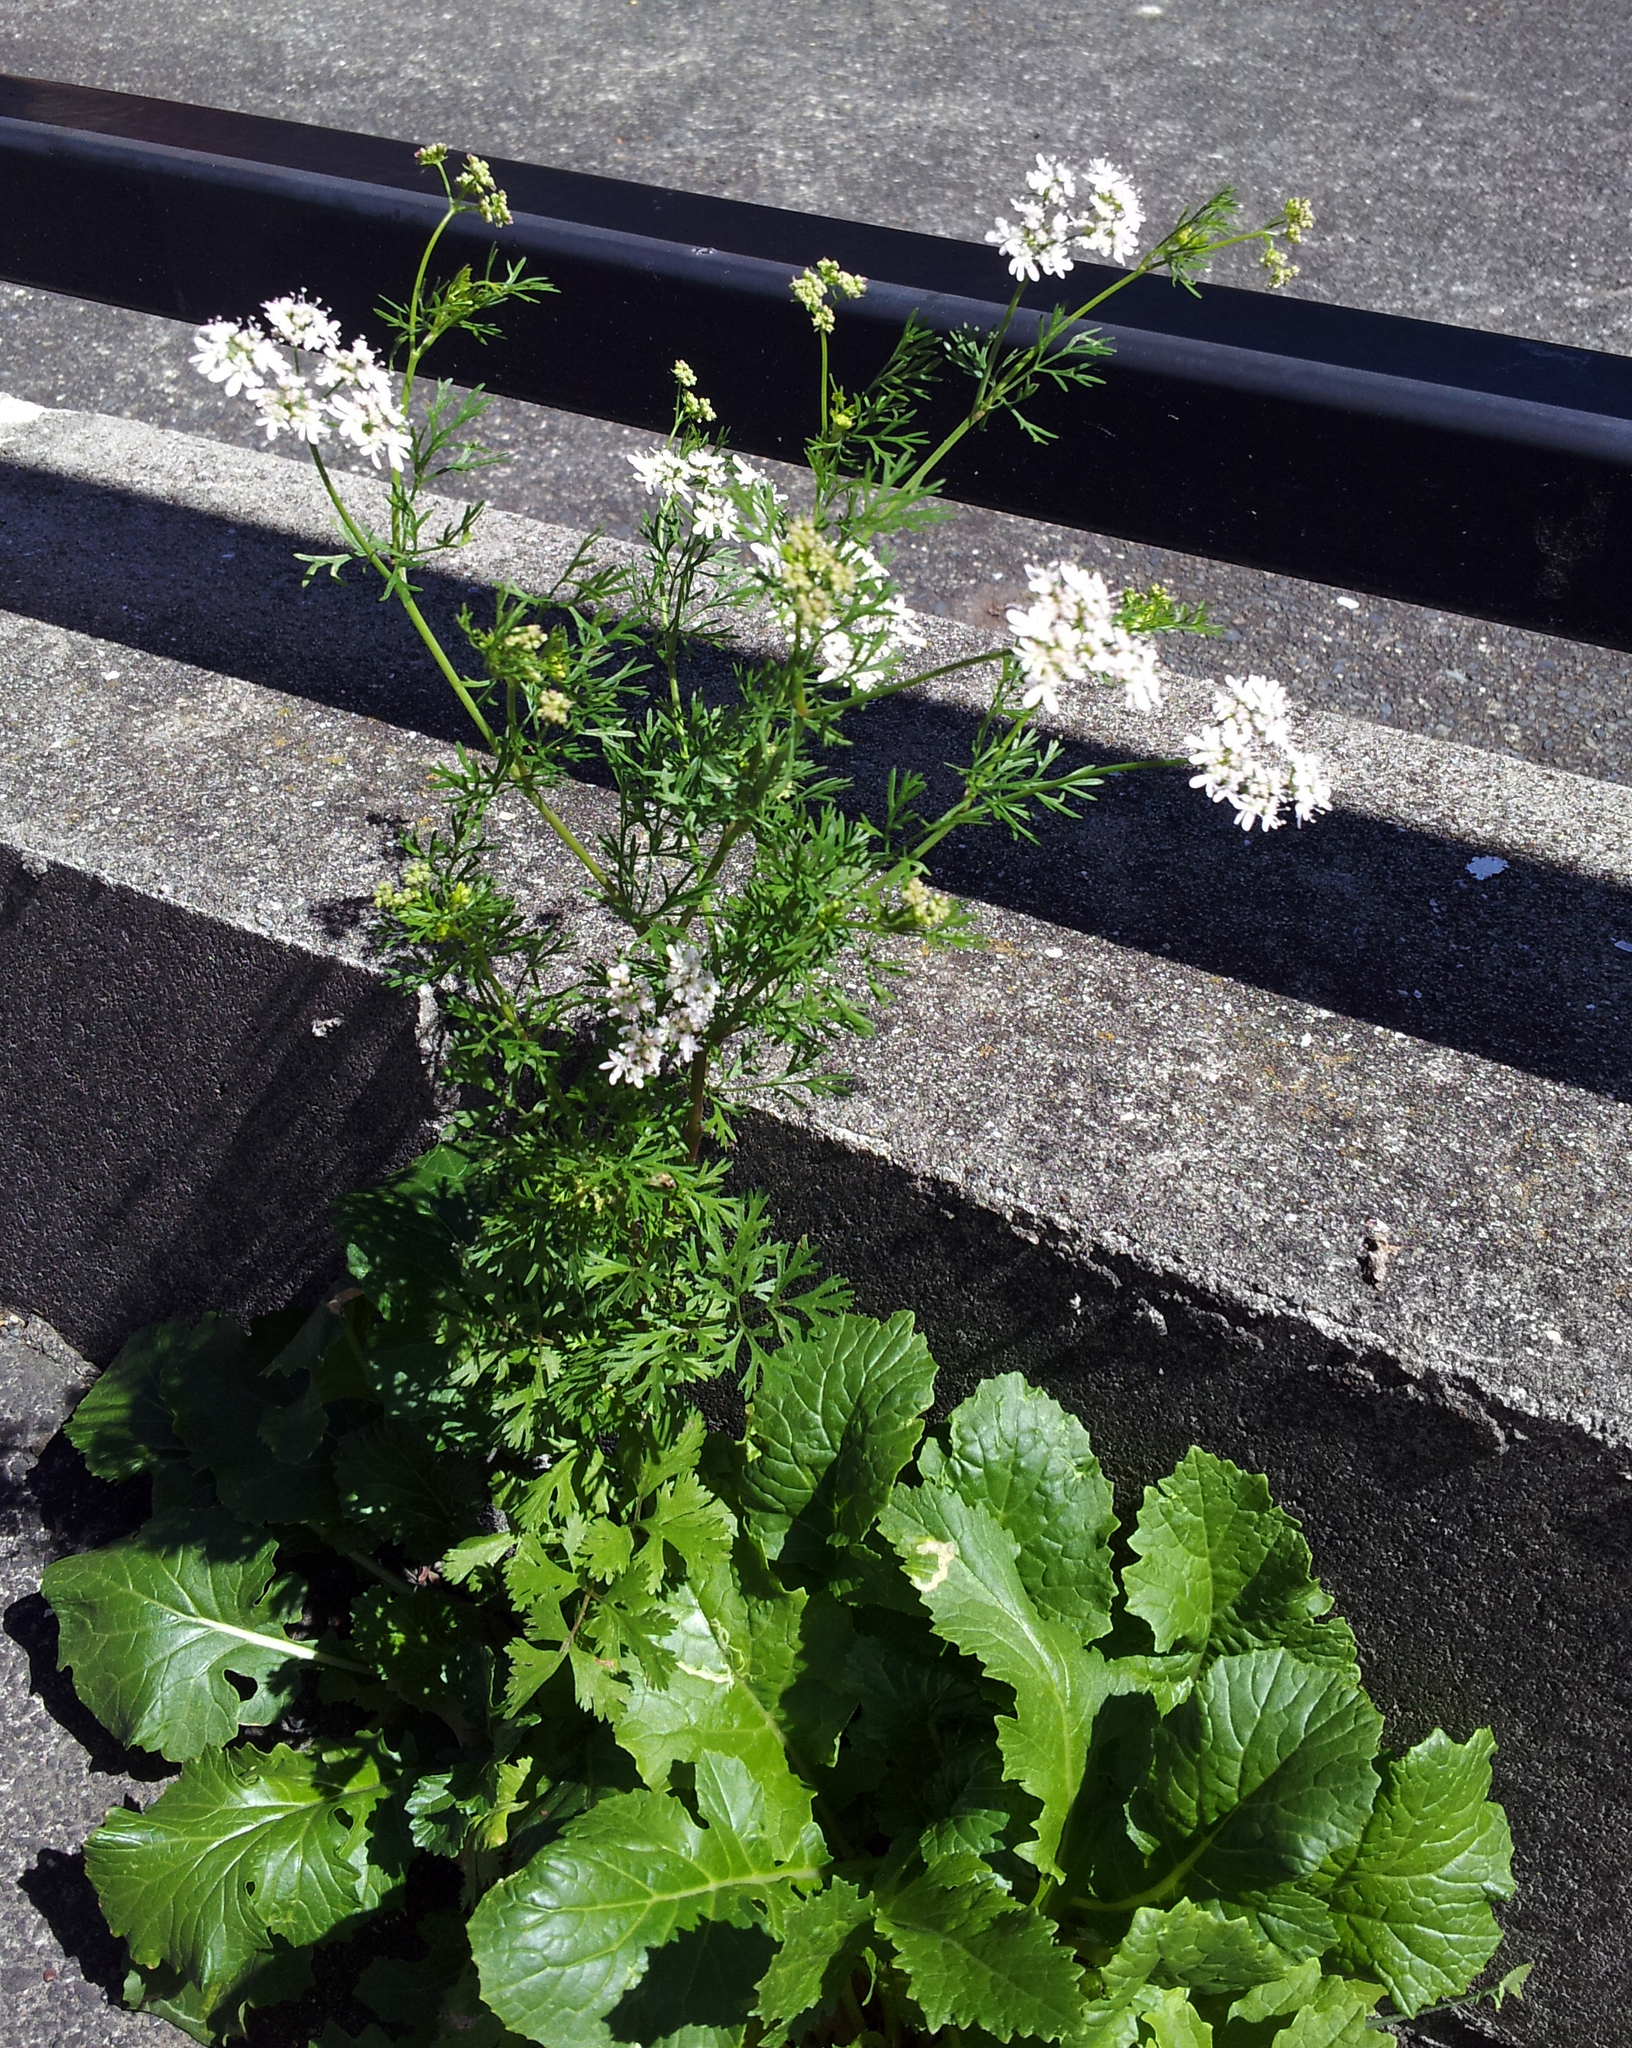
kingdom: Plantae
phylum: Tracheophyta
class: Magnoliopsida
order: Apiales
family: Apiaceae
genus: Coriandrum
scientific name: Coriandrum sativum
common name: Coriander
